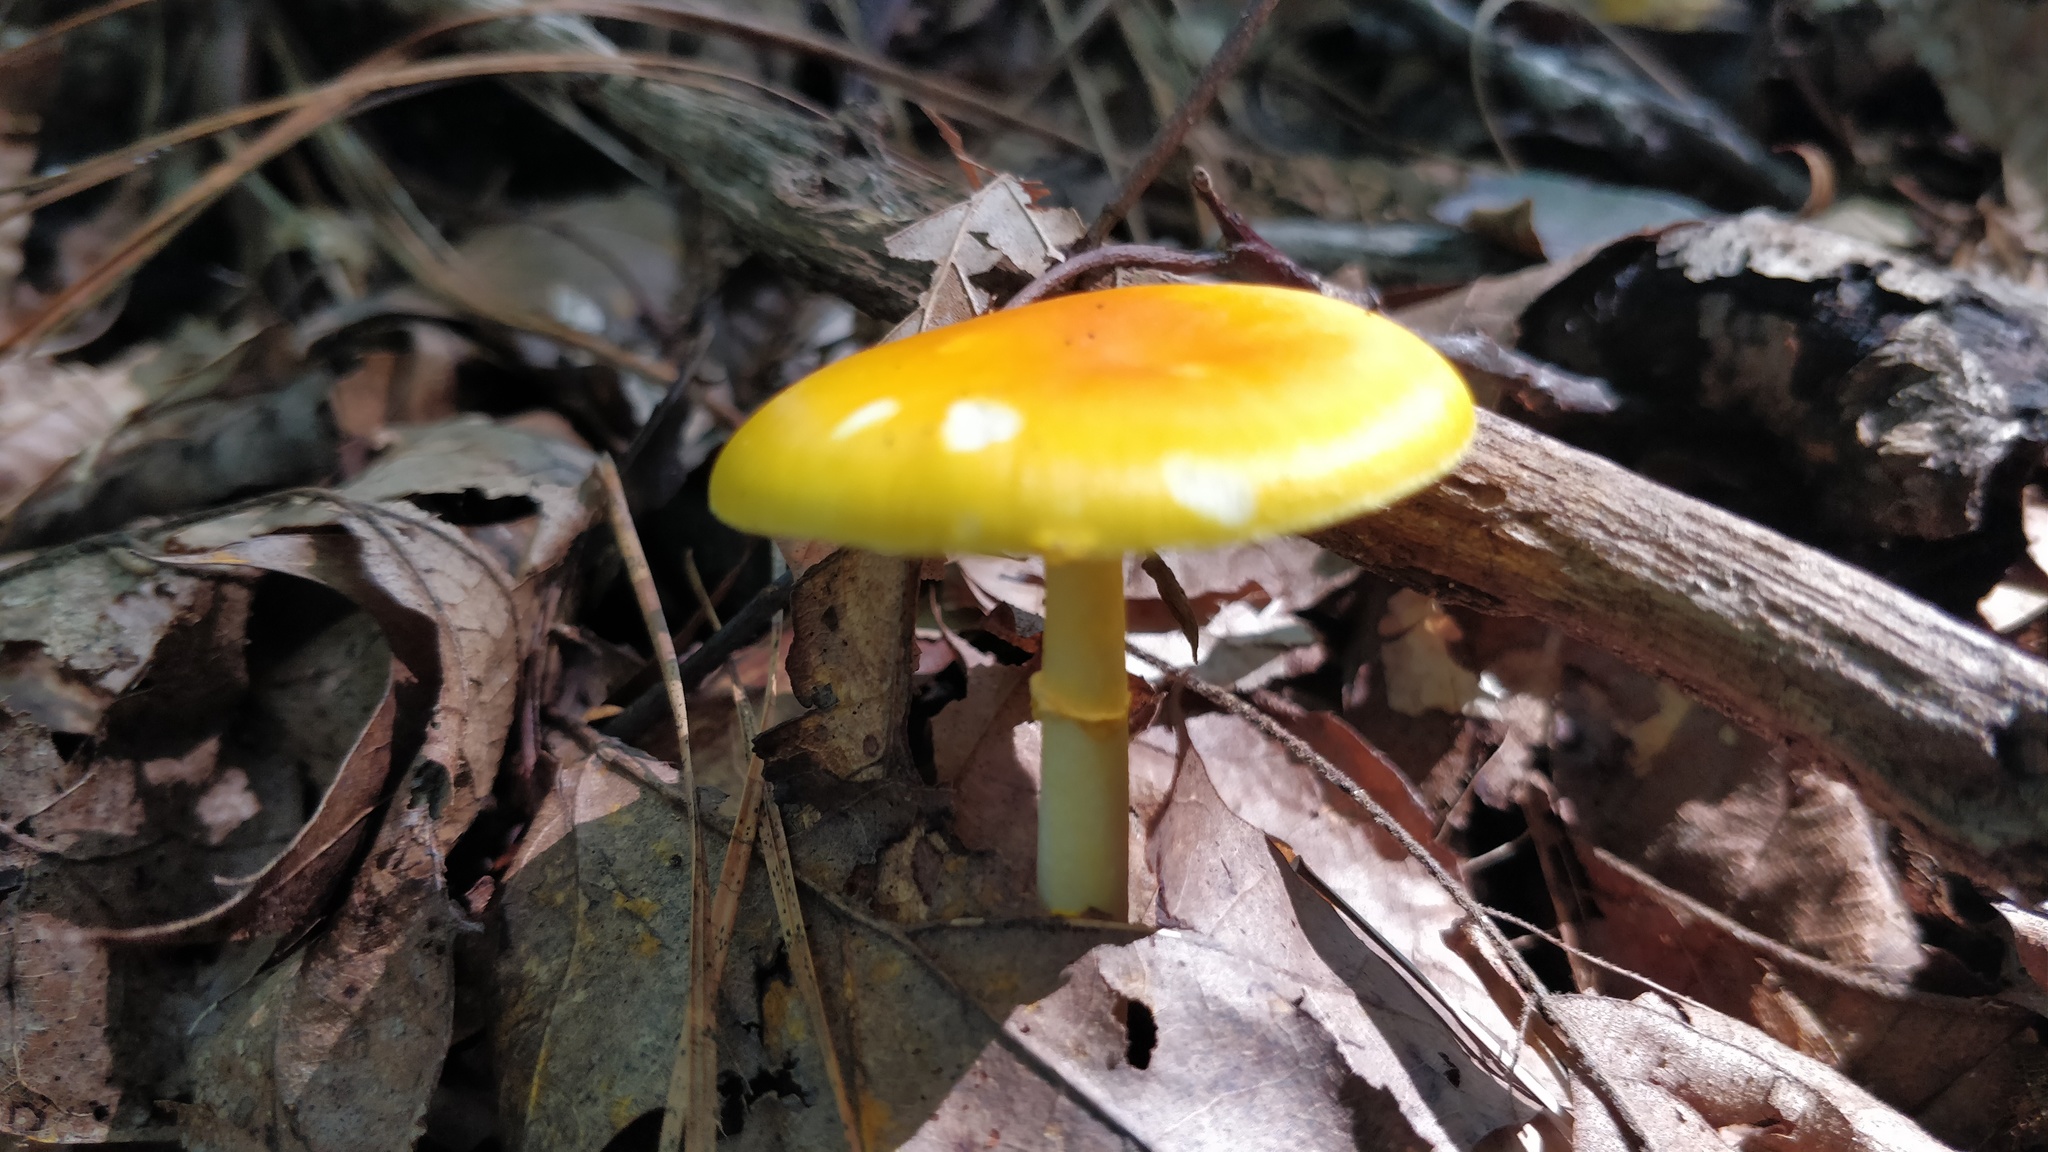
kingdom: Fungi
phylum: Basidiomycota
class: Agaricomycetes
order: Agaricales
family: Amanitaceae
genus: Amanita
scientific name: Amanita flavoconia
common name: Yellow patches
